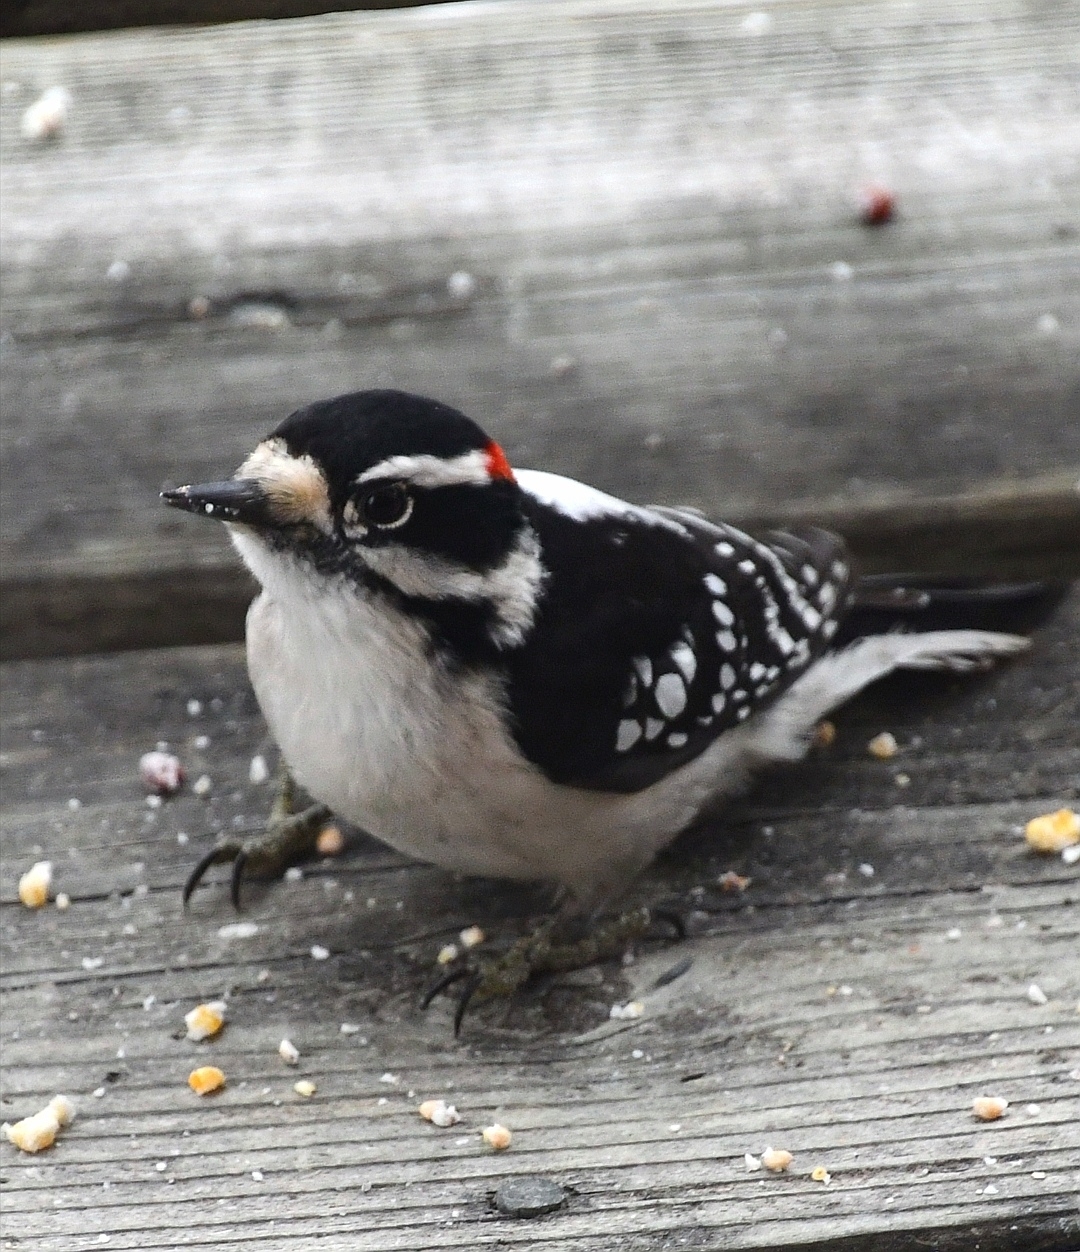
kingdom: Animalia
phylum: Chordata
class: Aves
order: Piciformes
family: Picidae
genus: Dryobates
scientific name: Dryobates pubescens
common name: Downy woodpecker
